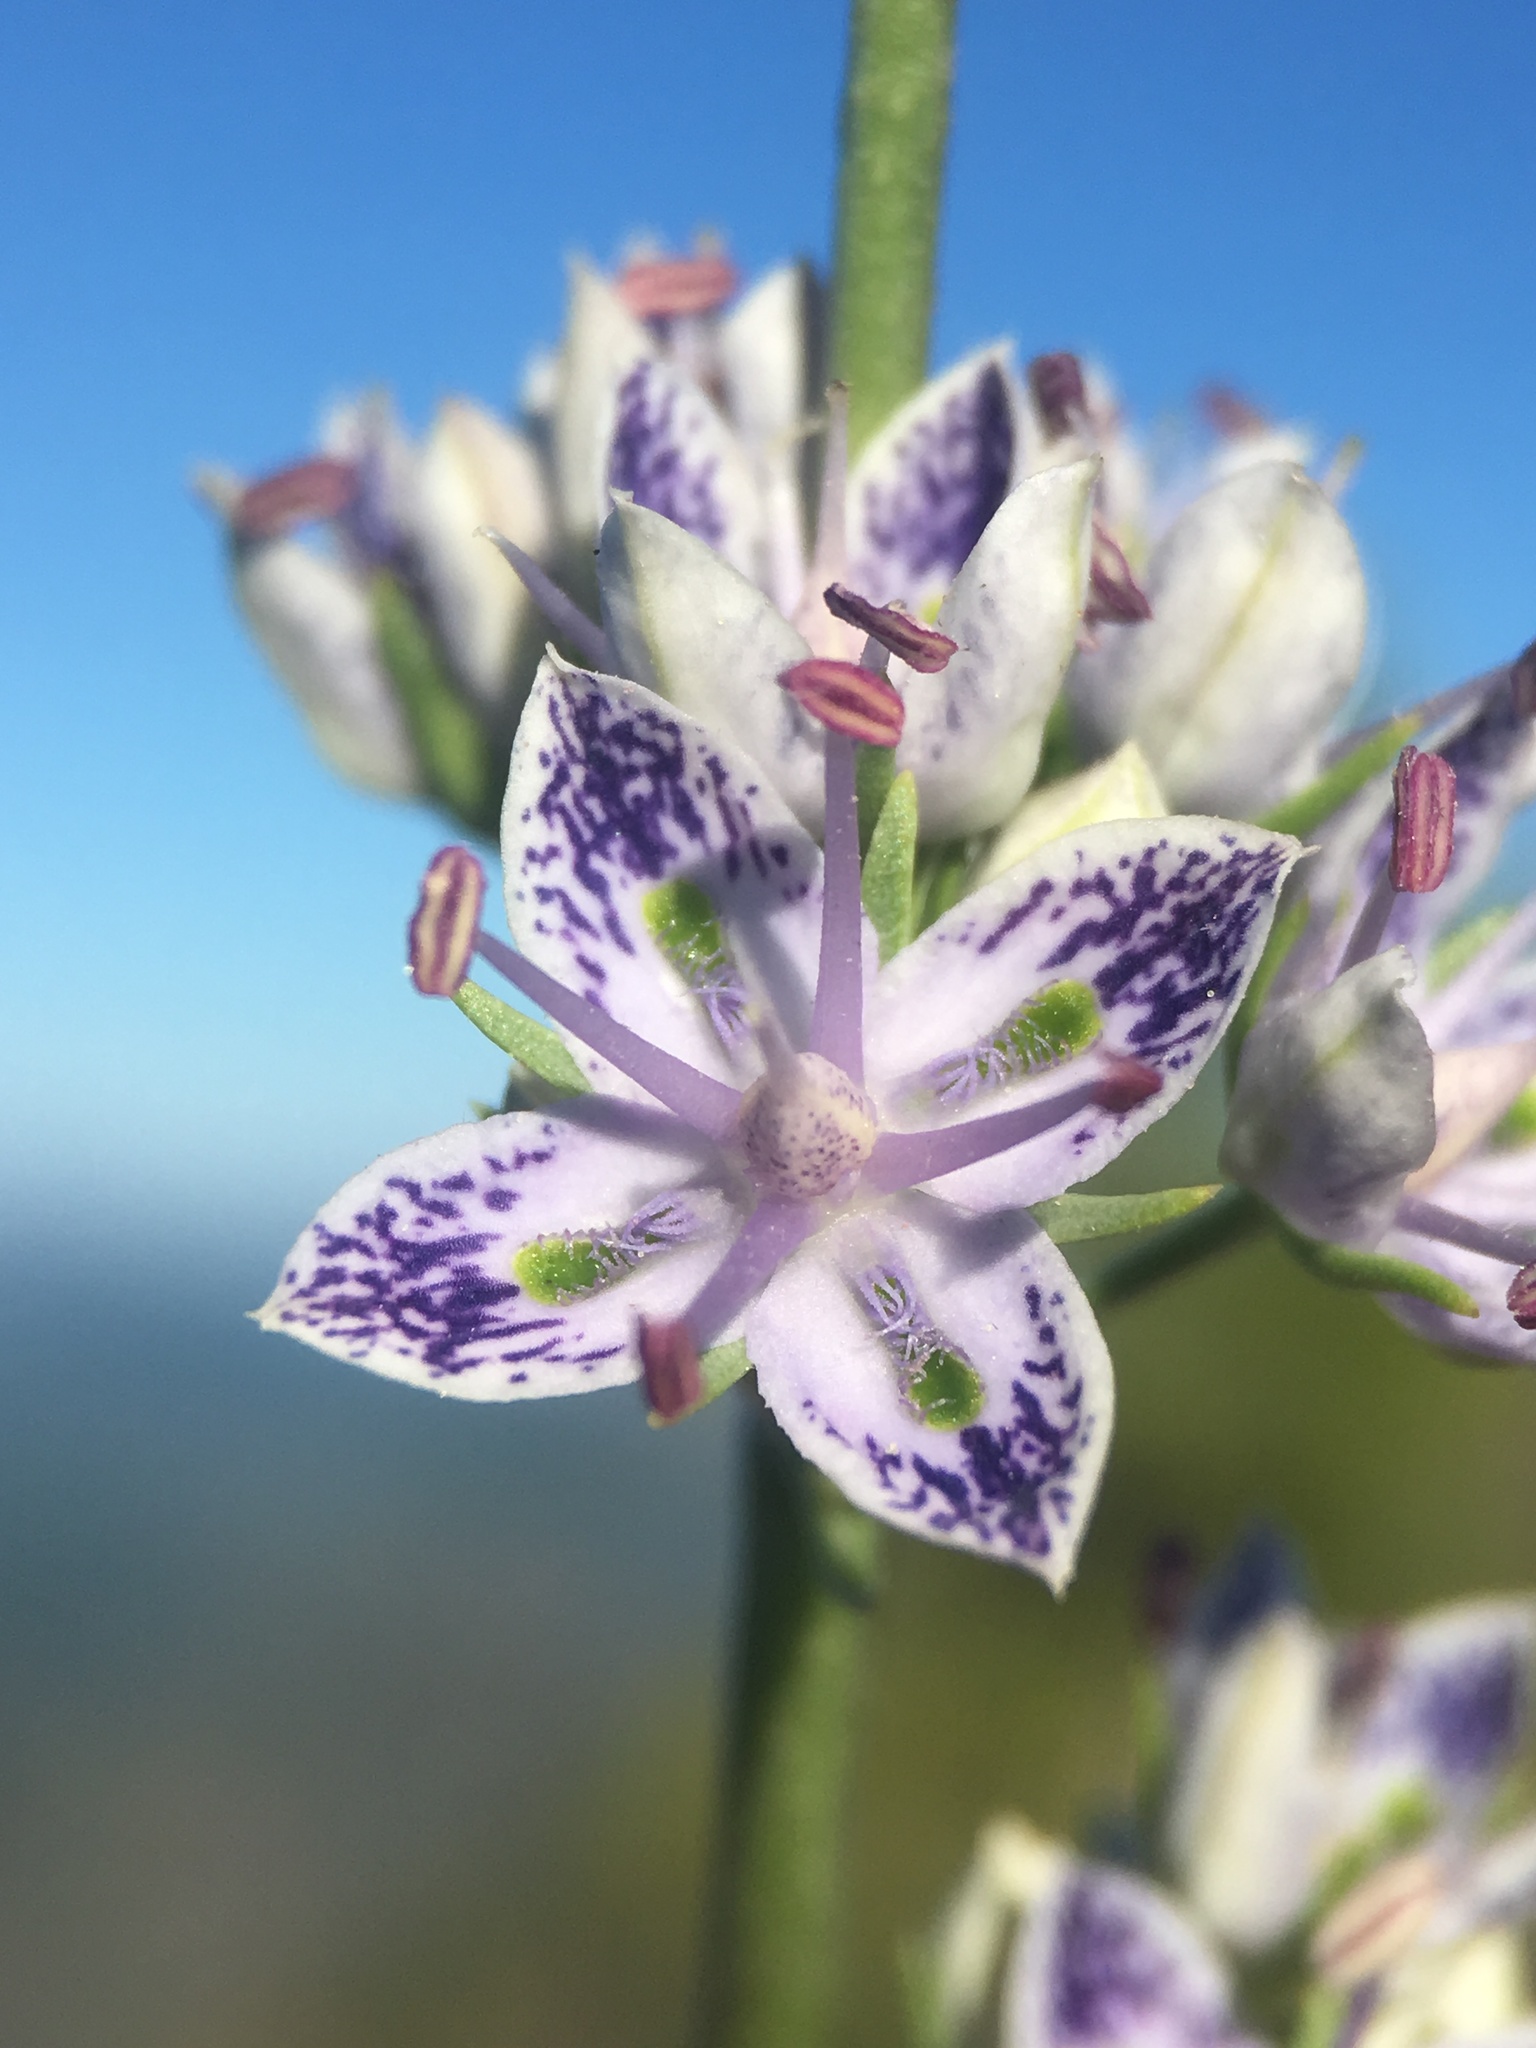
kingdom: Plantae
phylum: Tracheophyta
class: Magnoliopsida
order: Gentianales
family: Gentianaceae
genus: Frasera
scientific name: Frasera albicaulis
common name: Cusick's frasera
